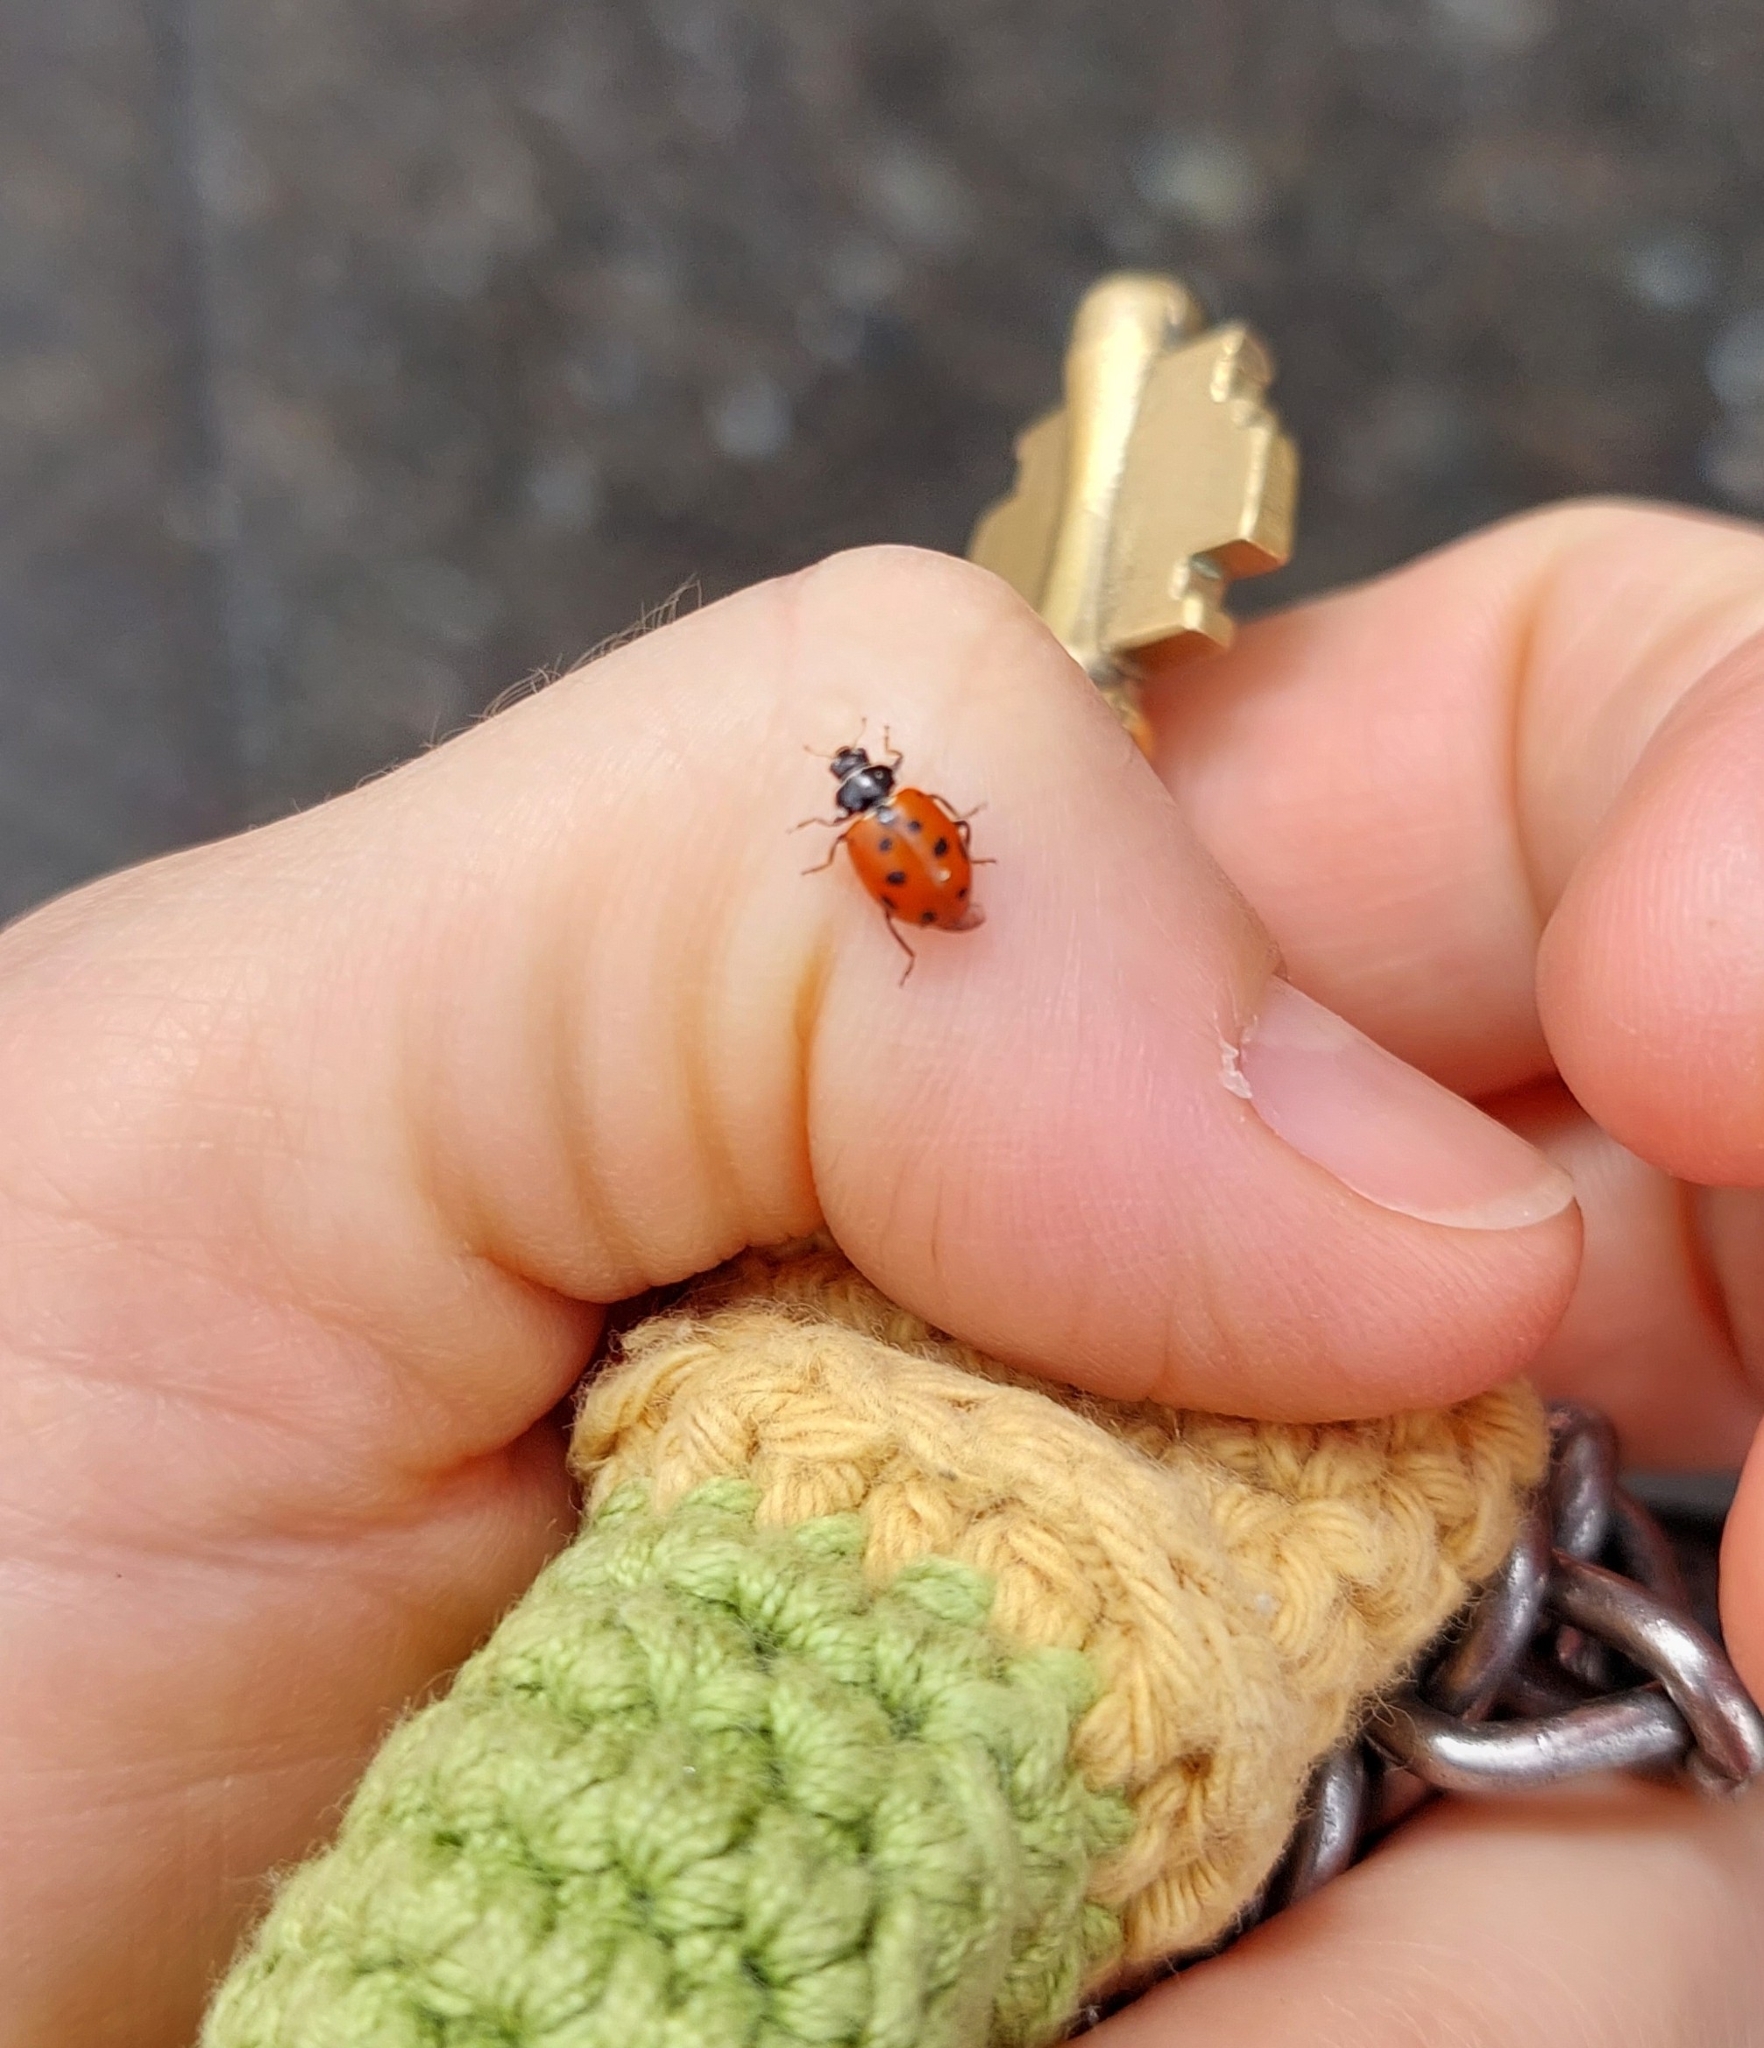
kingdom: Animalia
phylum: Arthropoda
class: Insecta
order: Coleoptera
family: Coccinellidae
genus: Hippodamia
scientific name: Hippodamia variegata
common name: Ladybird beetle
